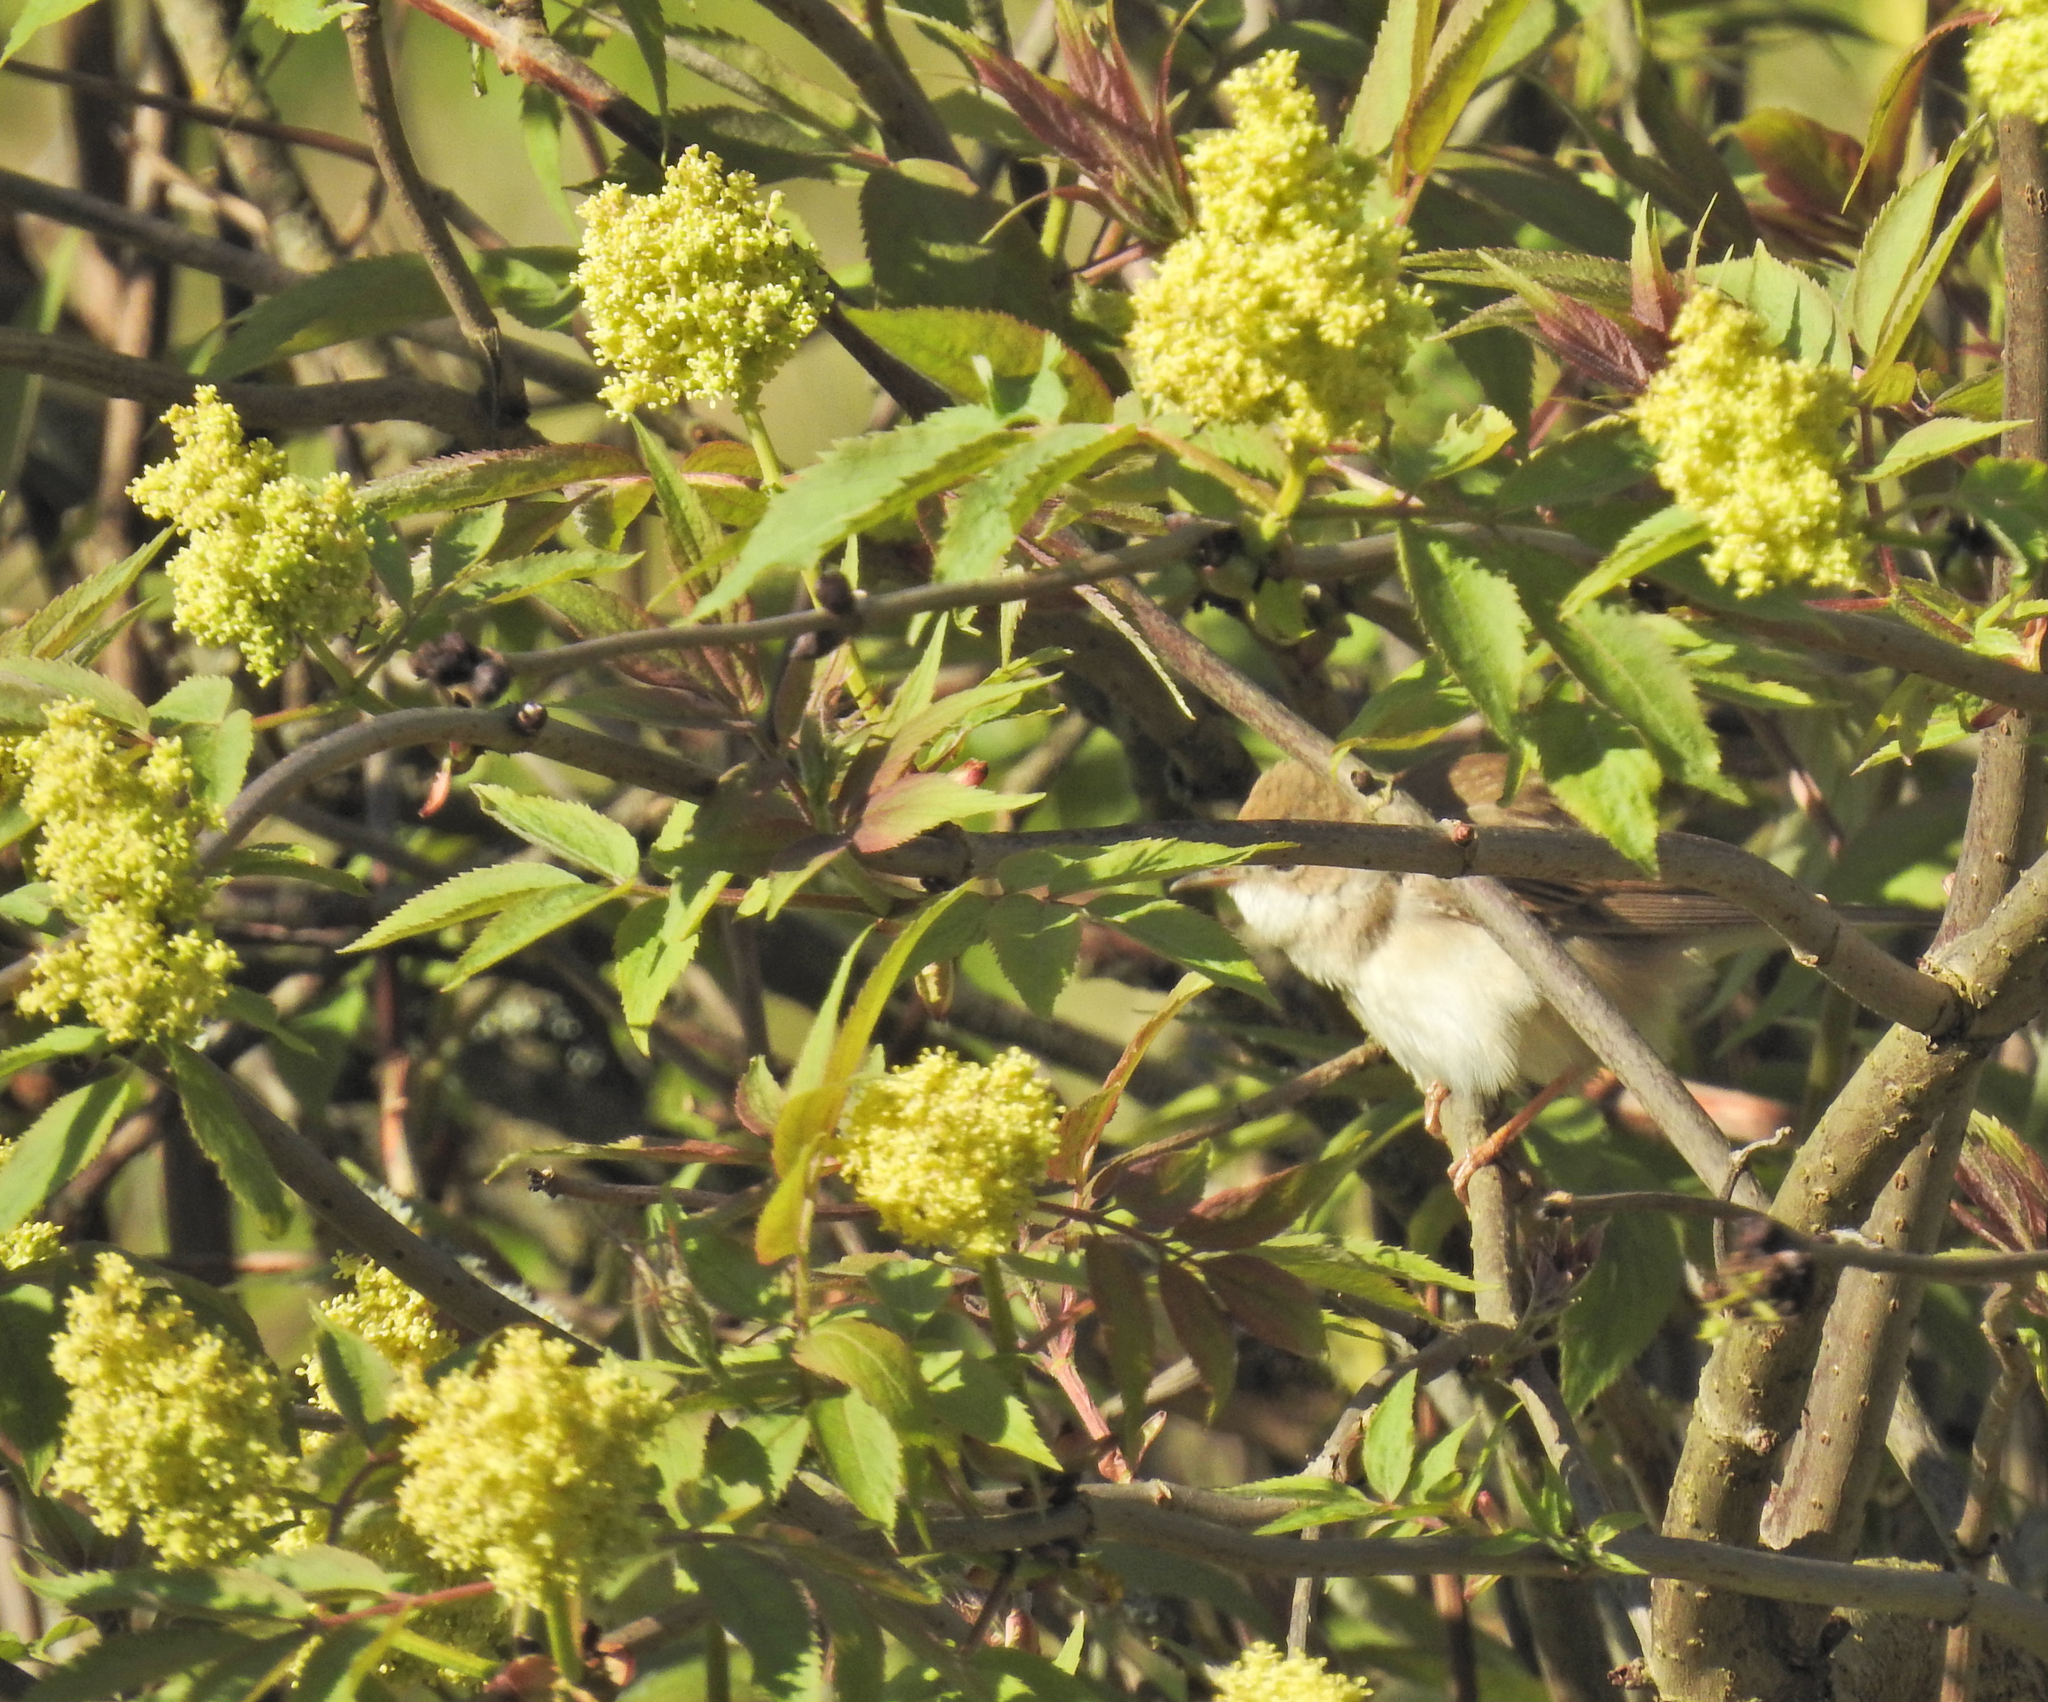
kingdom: Animalia
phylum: Chordata
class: Aves
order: Passeriformes
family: Sylviidae
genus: Sylvia
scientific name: Sylvia communis
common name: Common whitethroat
